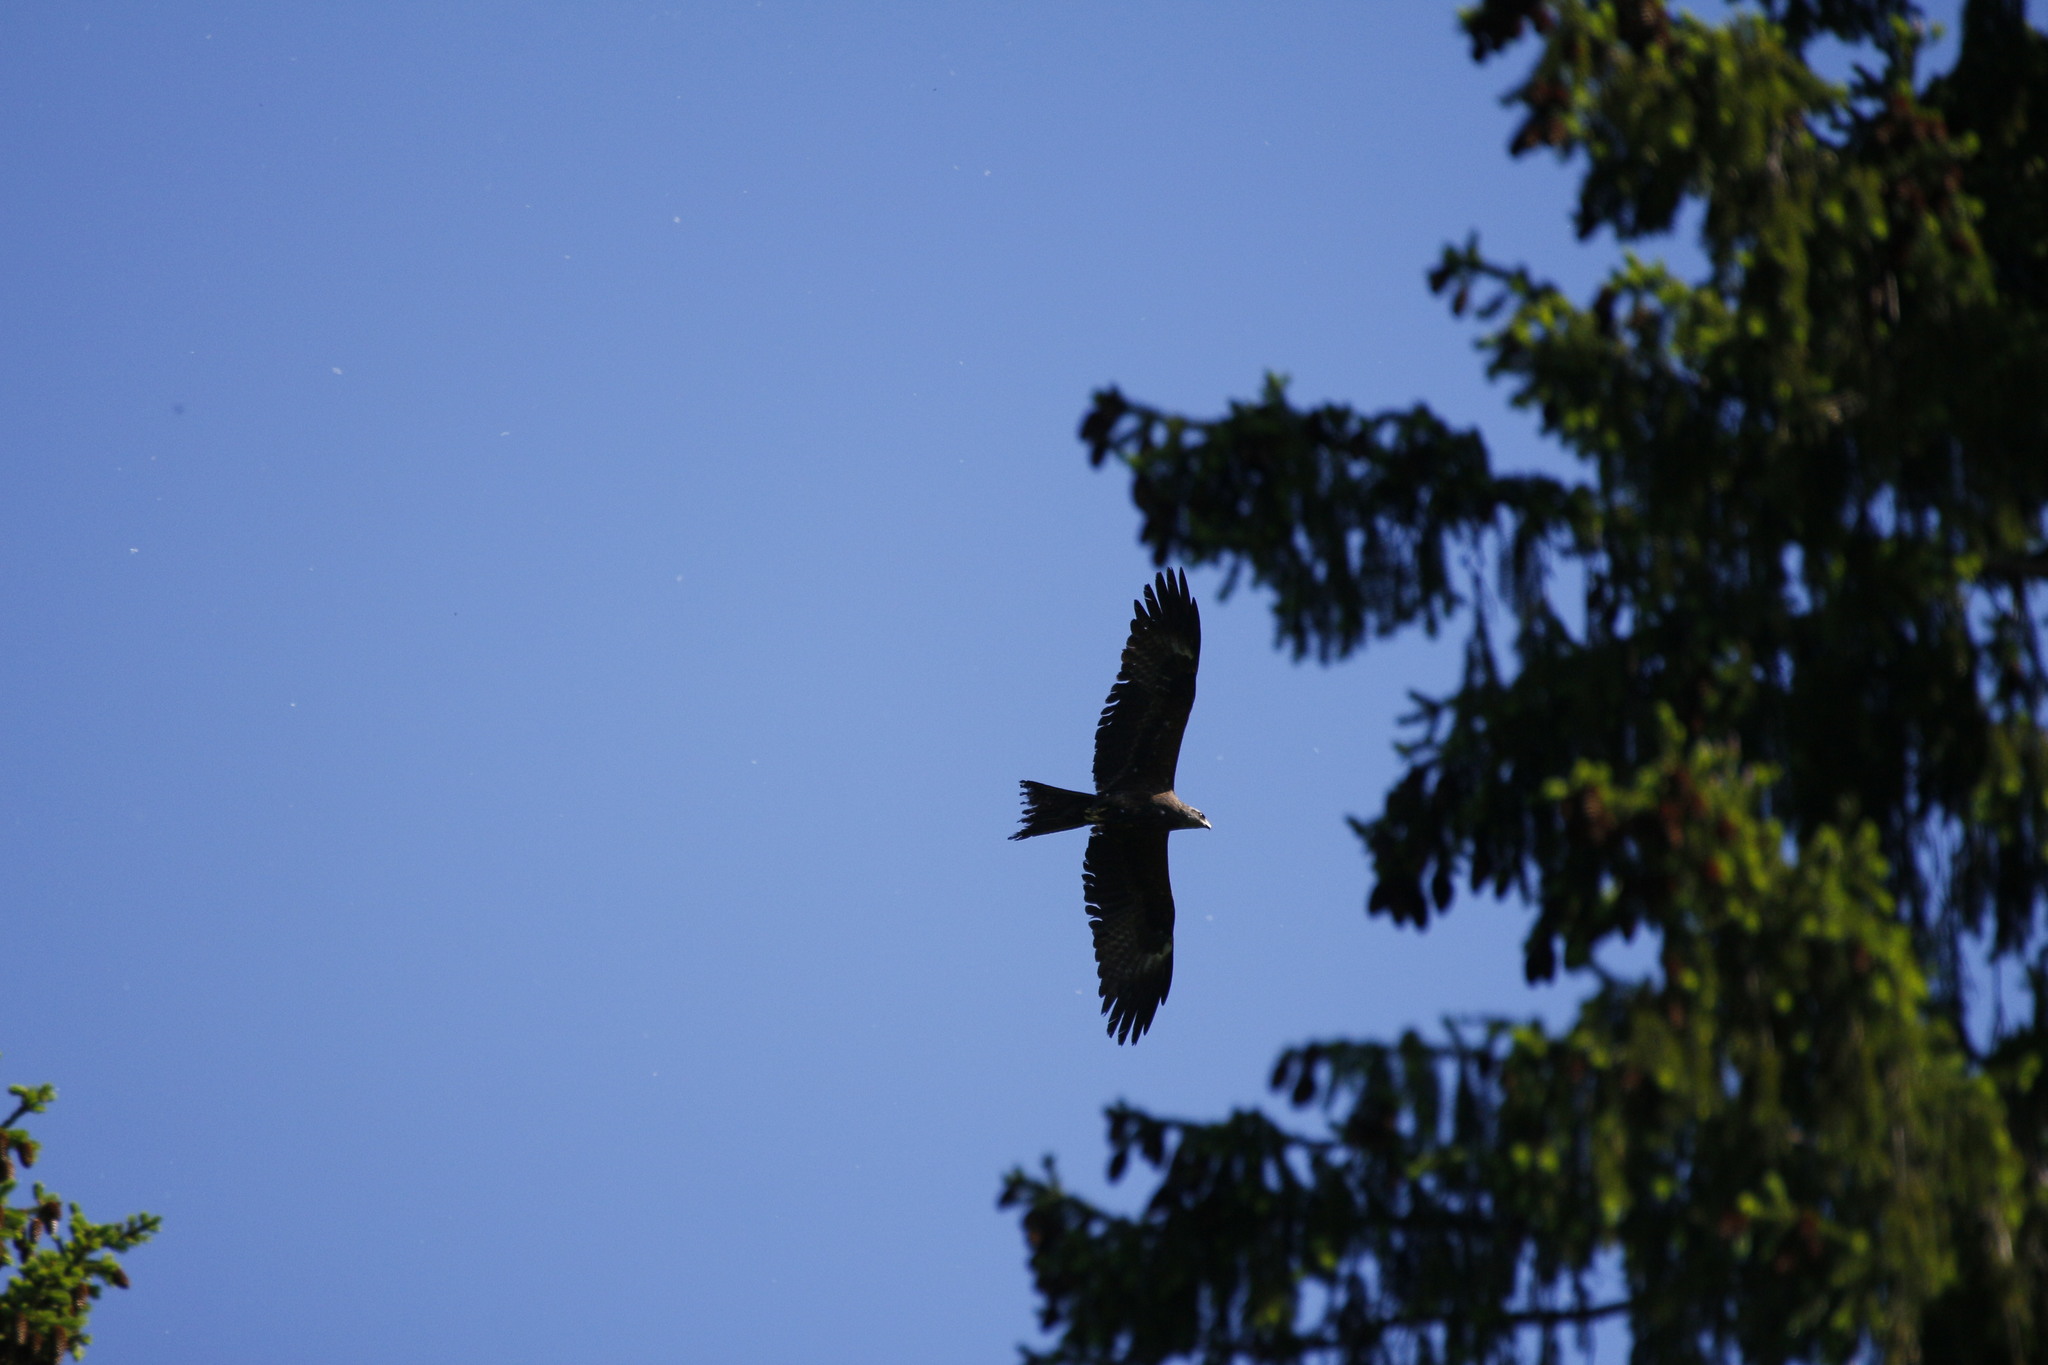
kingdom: Animalia
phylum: Chordata
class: Aves
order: Accipitriformes
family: Accipitridae
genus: Milvus
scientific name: Milvus migrans
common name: Black kite
